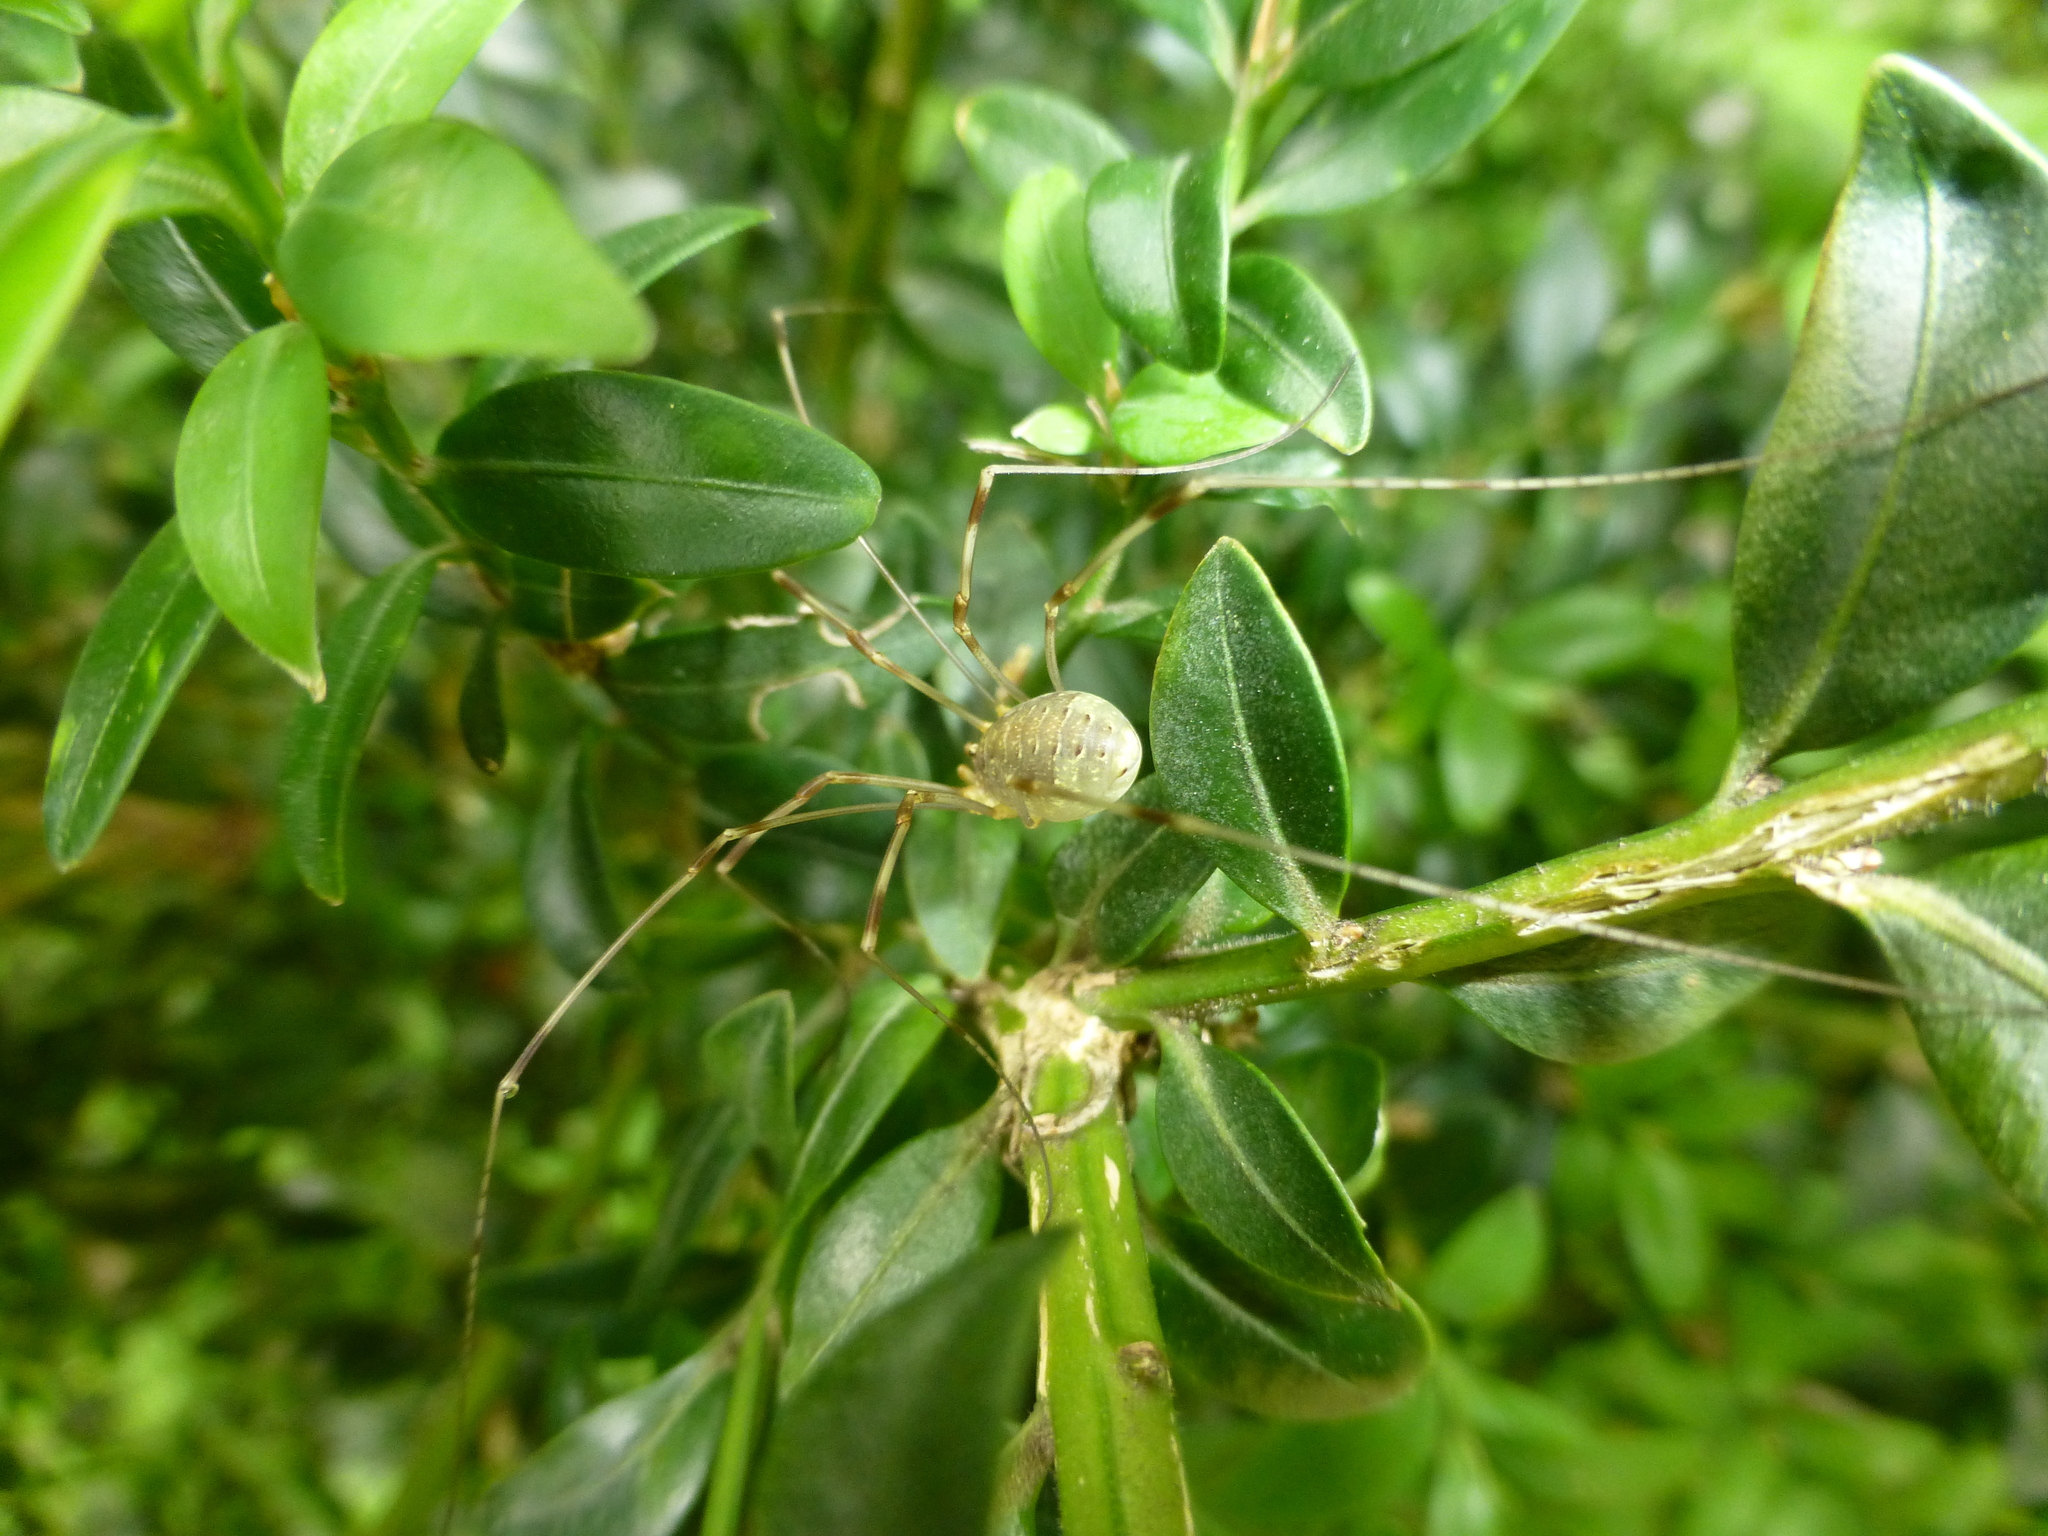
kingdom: Animalia
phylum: Arthropoda
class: Arachnida
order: Opiliones
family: Phalangiidae
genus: Opilio
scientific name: Opilio canestrinii
